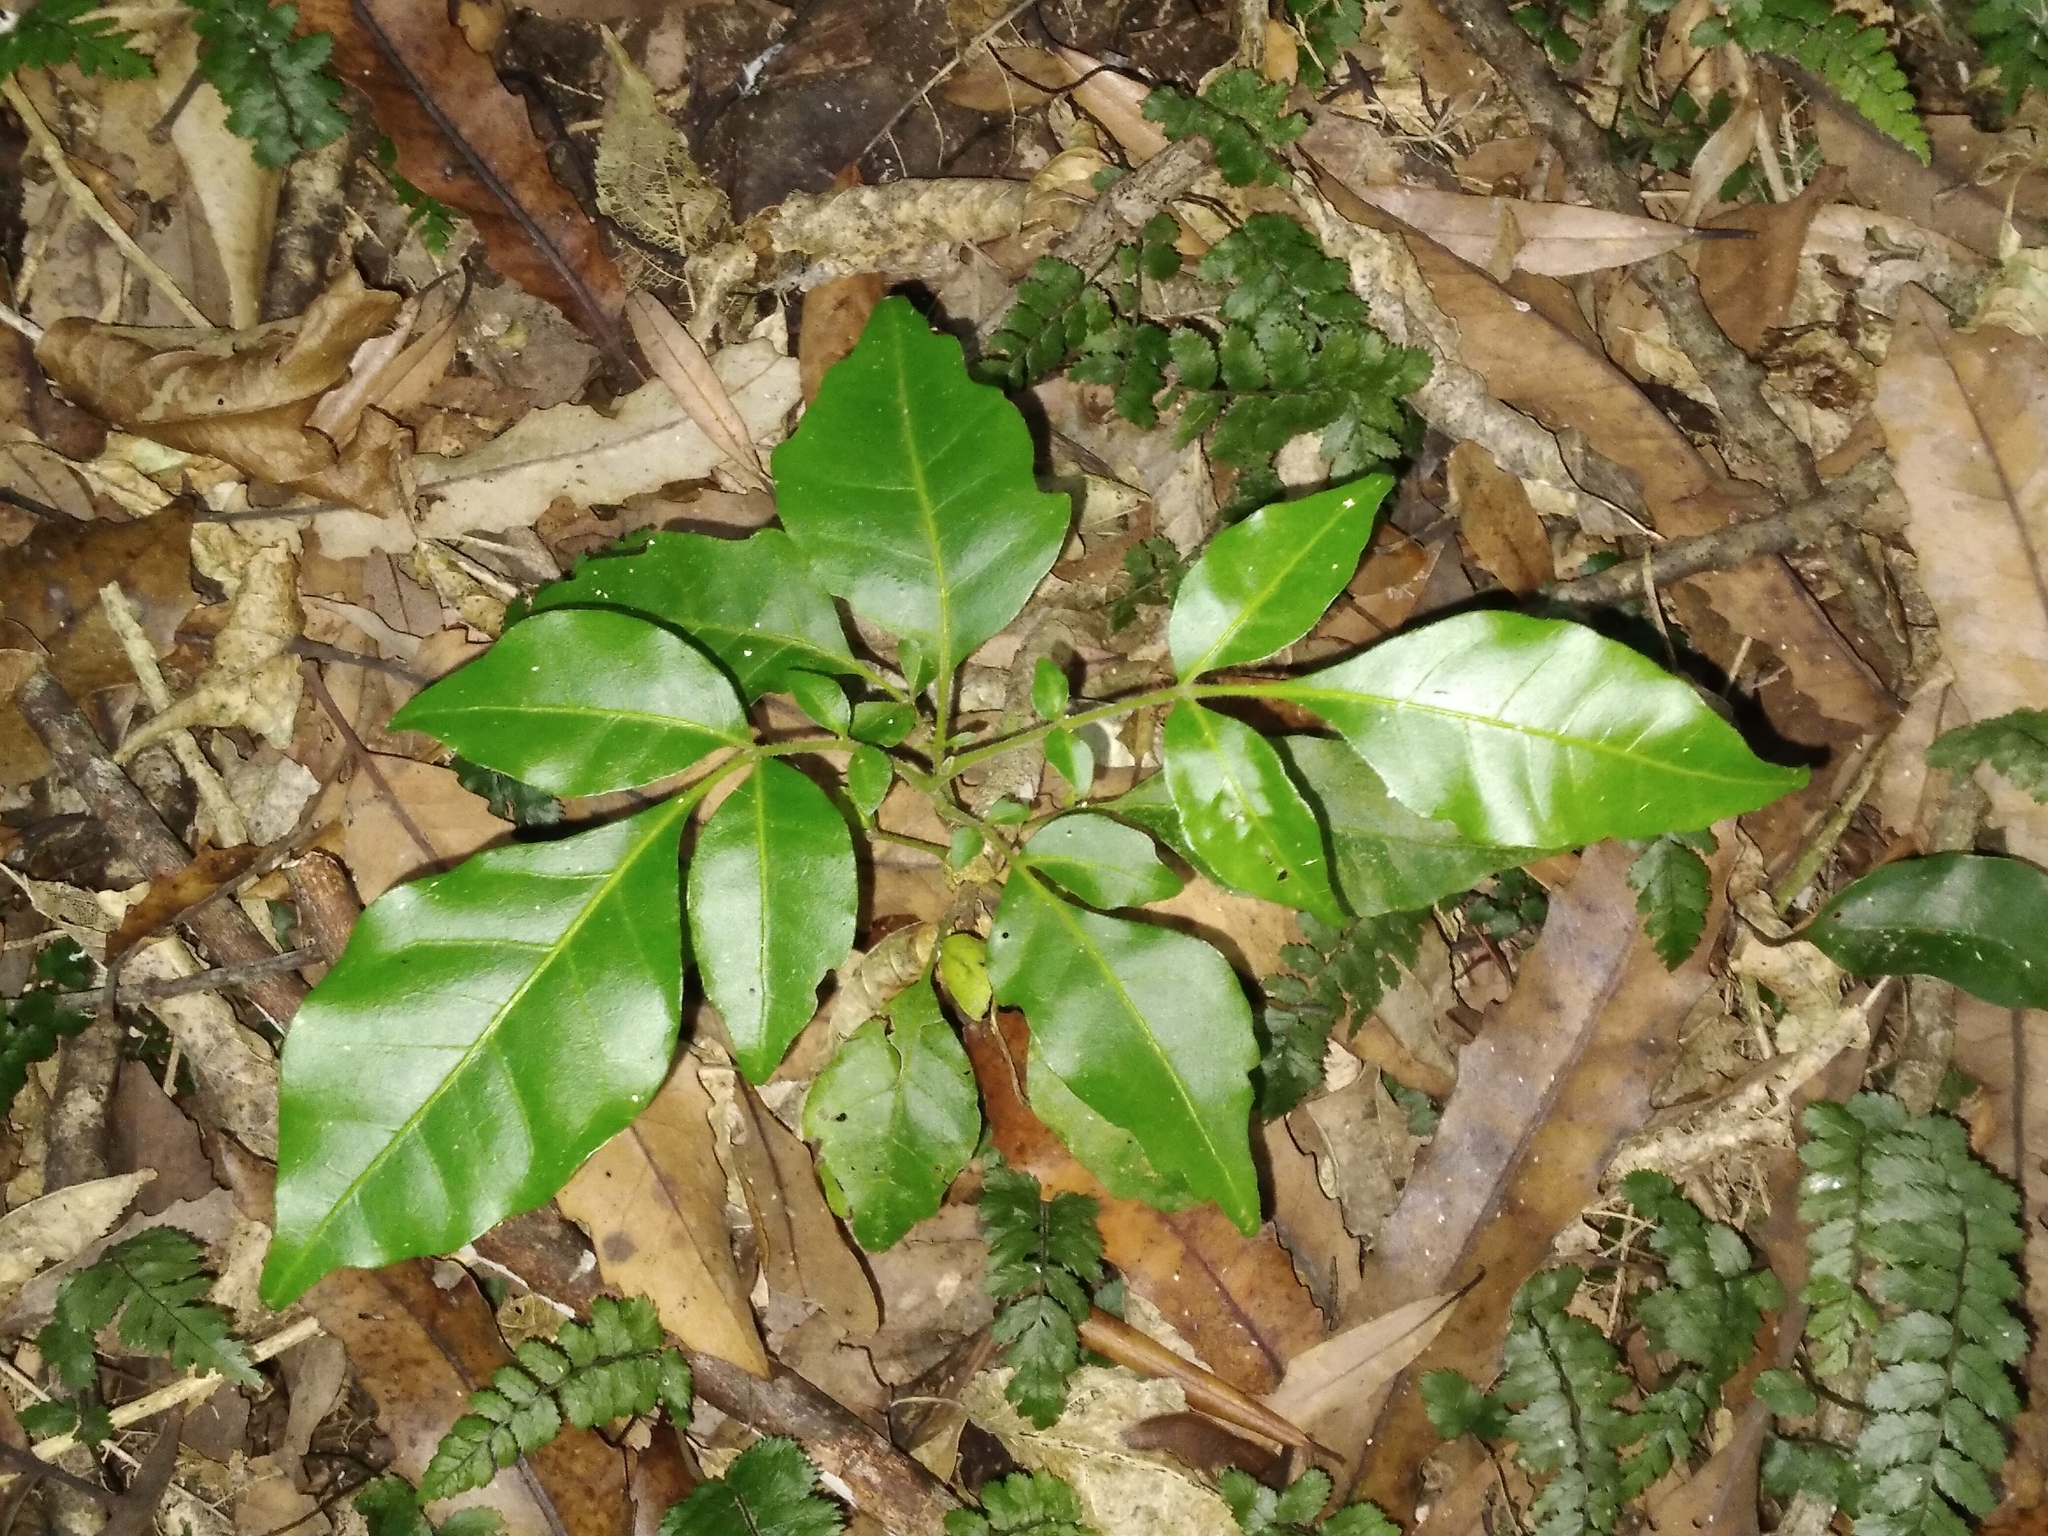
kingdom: Plantae
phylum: Tracheophyta
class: Magnoliopsida
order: Sapindales
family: Meliaceae
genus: Didymocheton
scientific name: Didymocheton spectabilis
